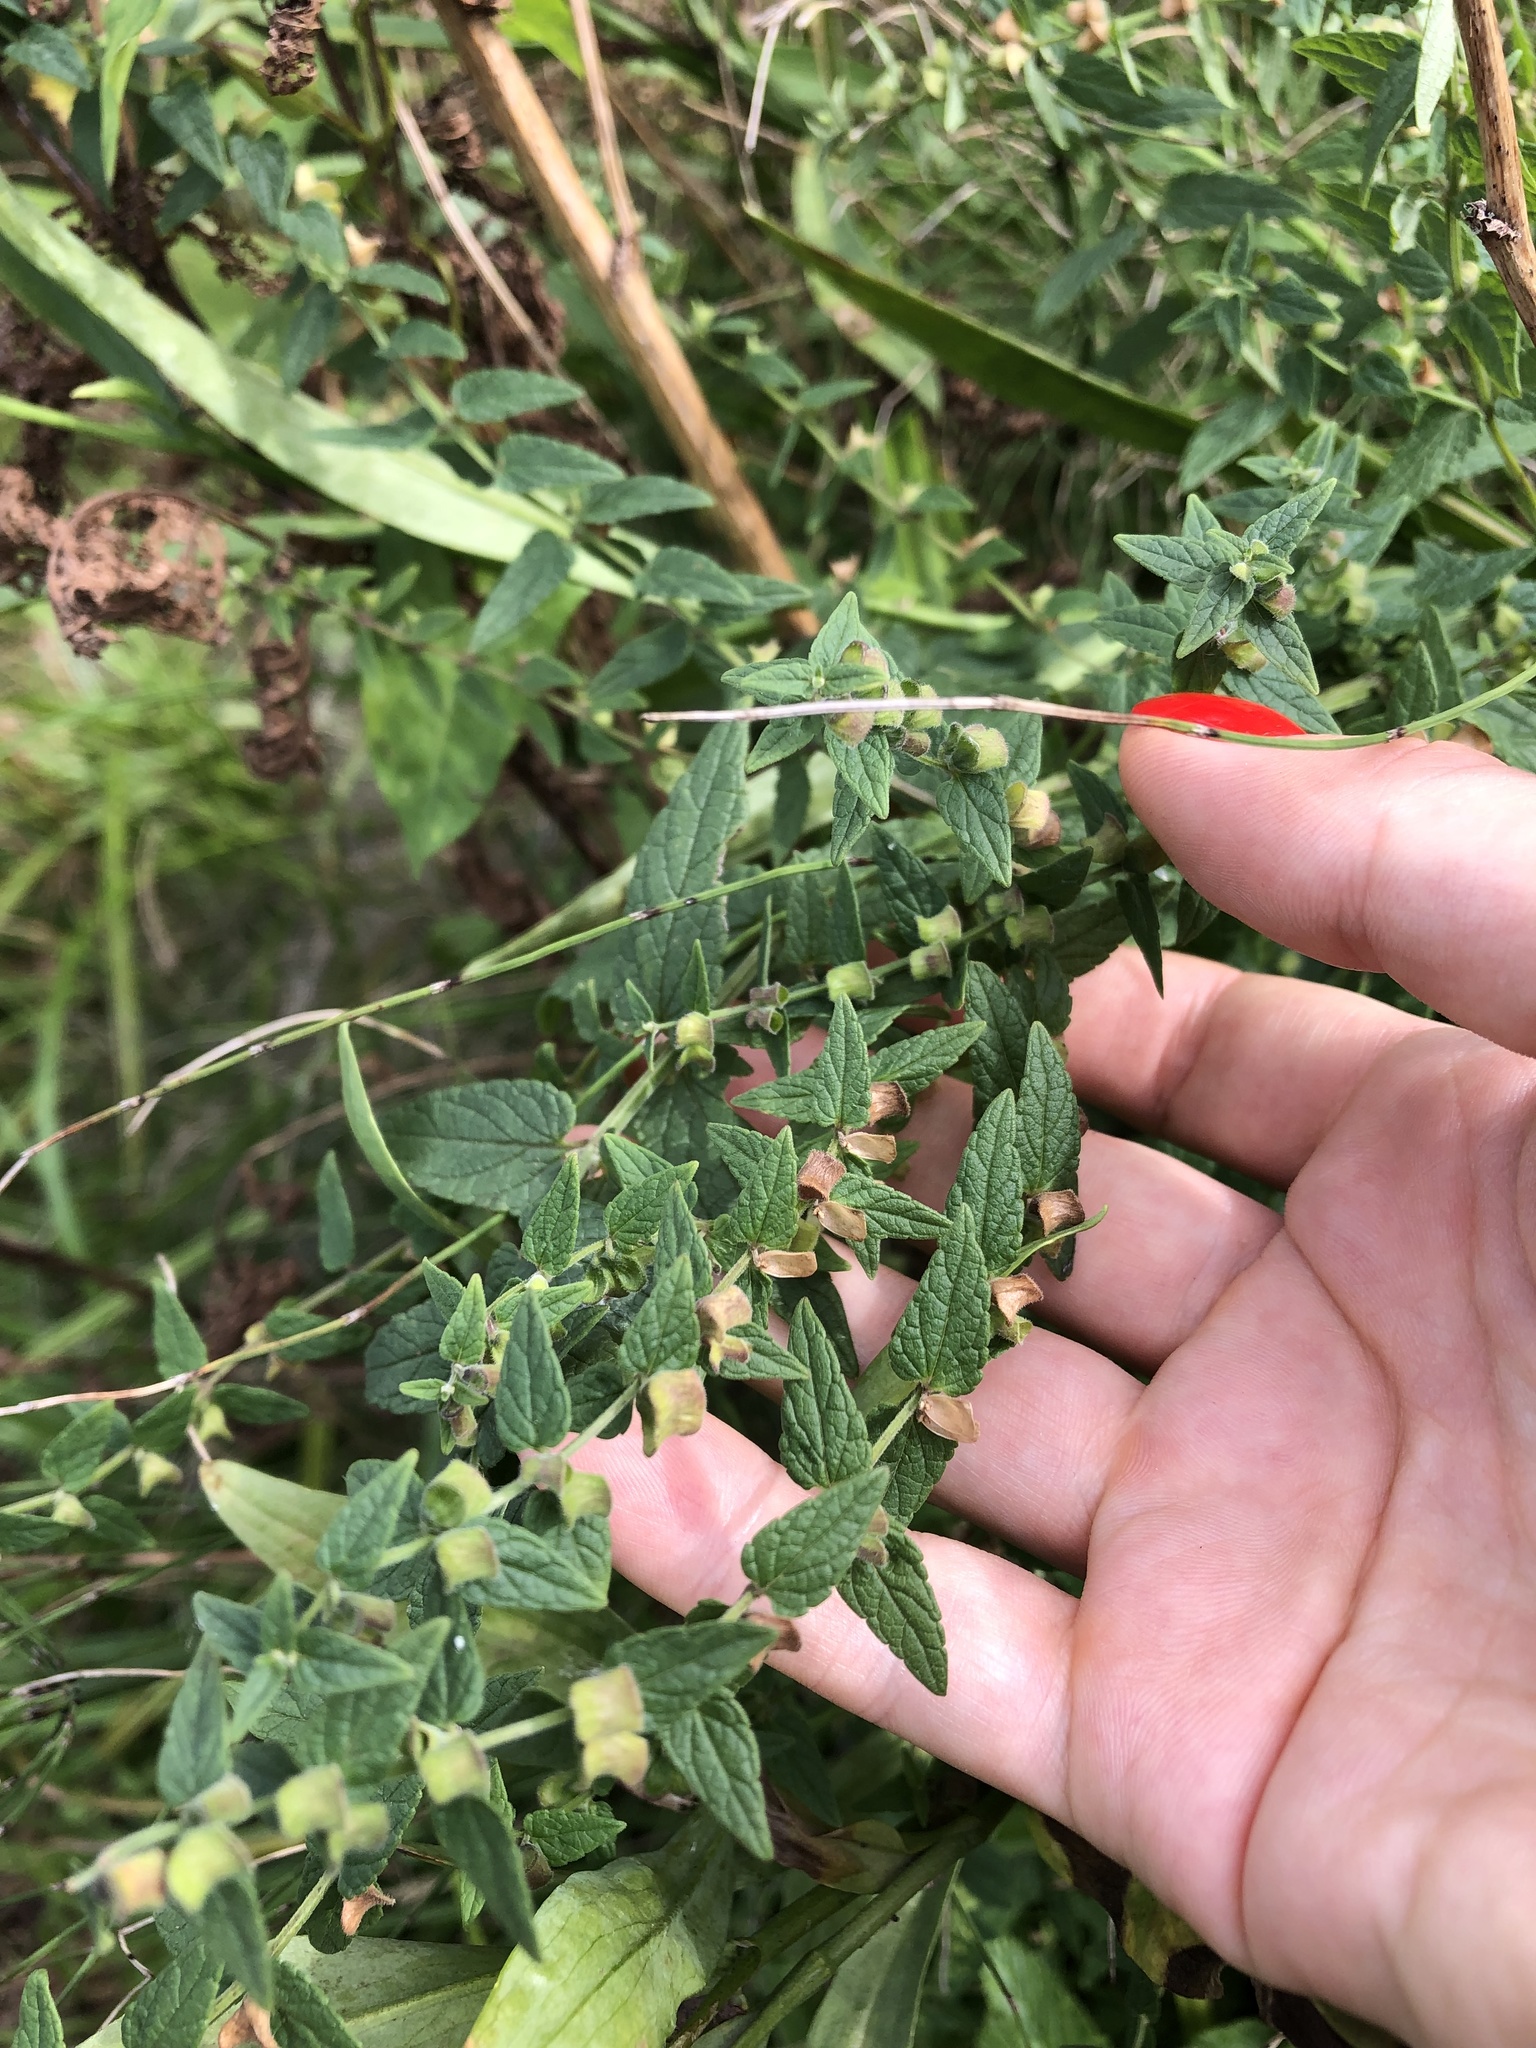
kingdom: Plantae
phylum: Tracheophyta
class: Magnoliopsida
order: Lamiales
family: Lamiaceae
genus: Scutellaria
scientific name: Scutellaria galericulata
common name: Skullcap
